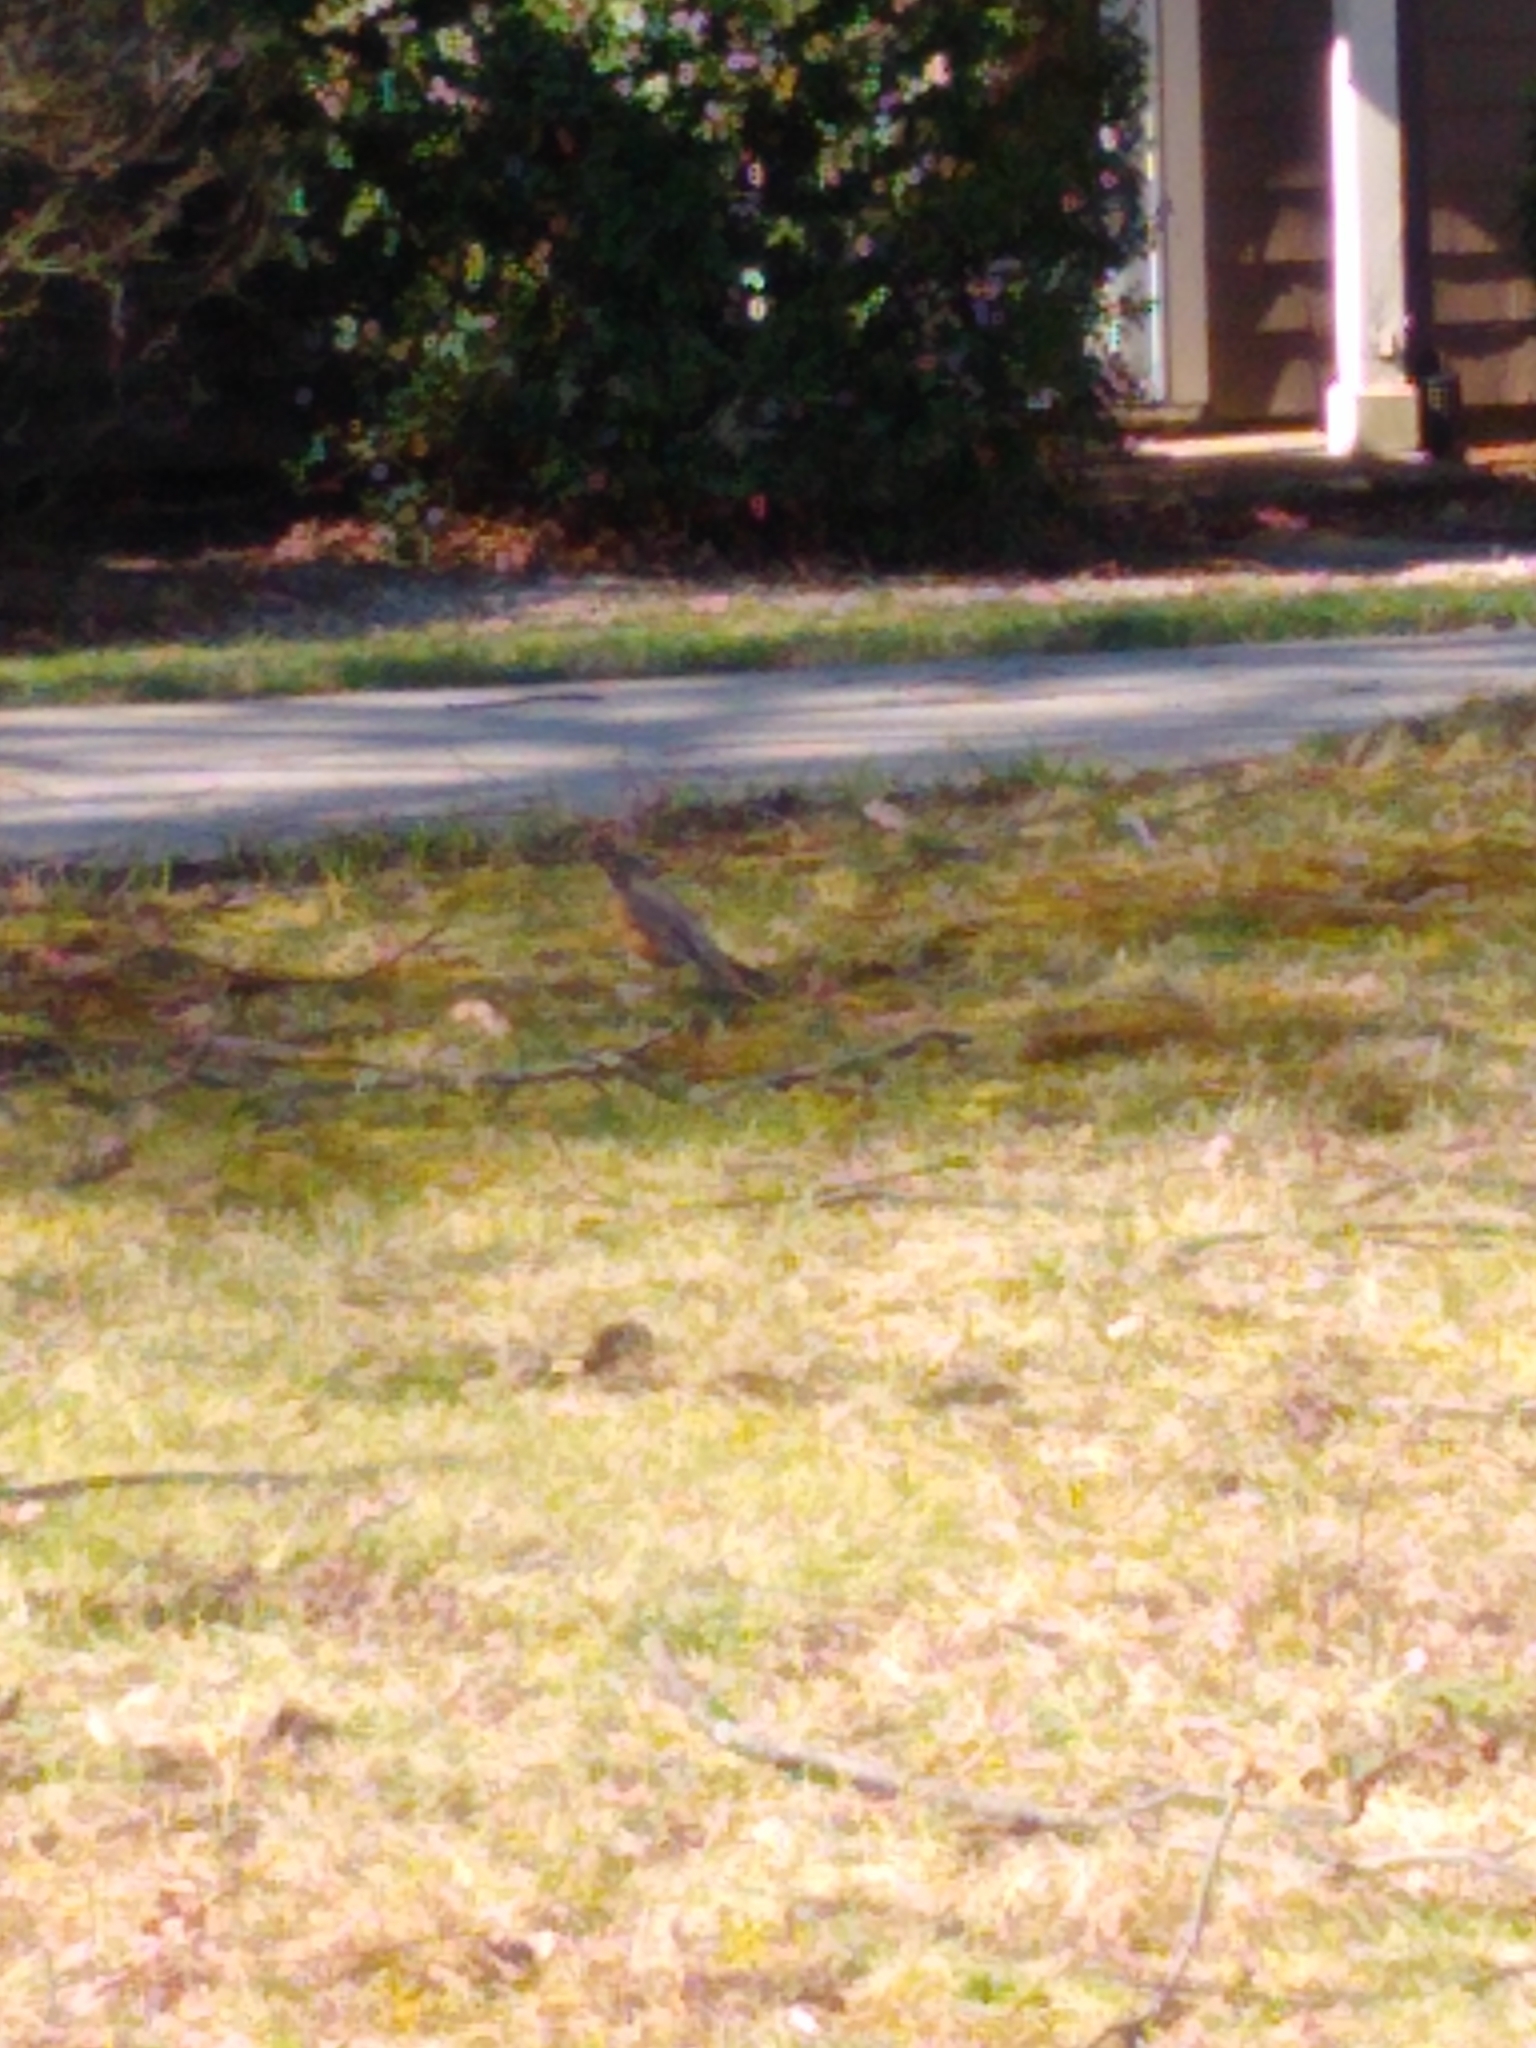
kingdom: Animalia
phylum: Chordata
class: Aves
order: Passeriformes
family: Turdidae
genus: Turdus
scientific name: Turdus migratorius
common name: American robin
